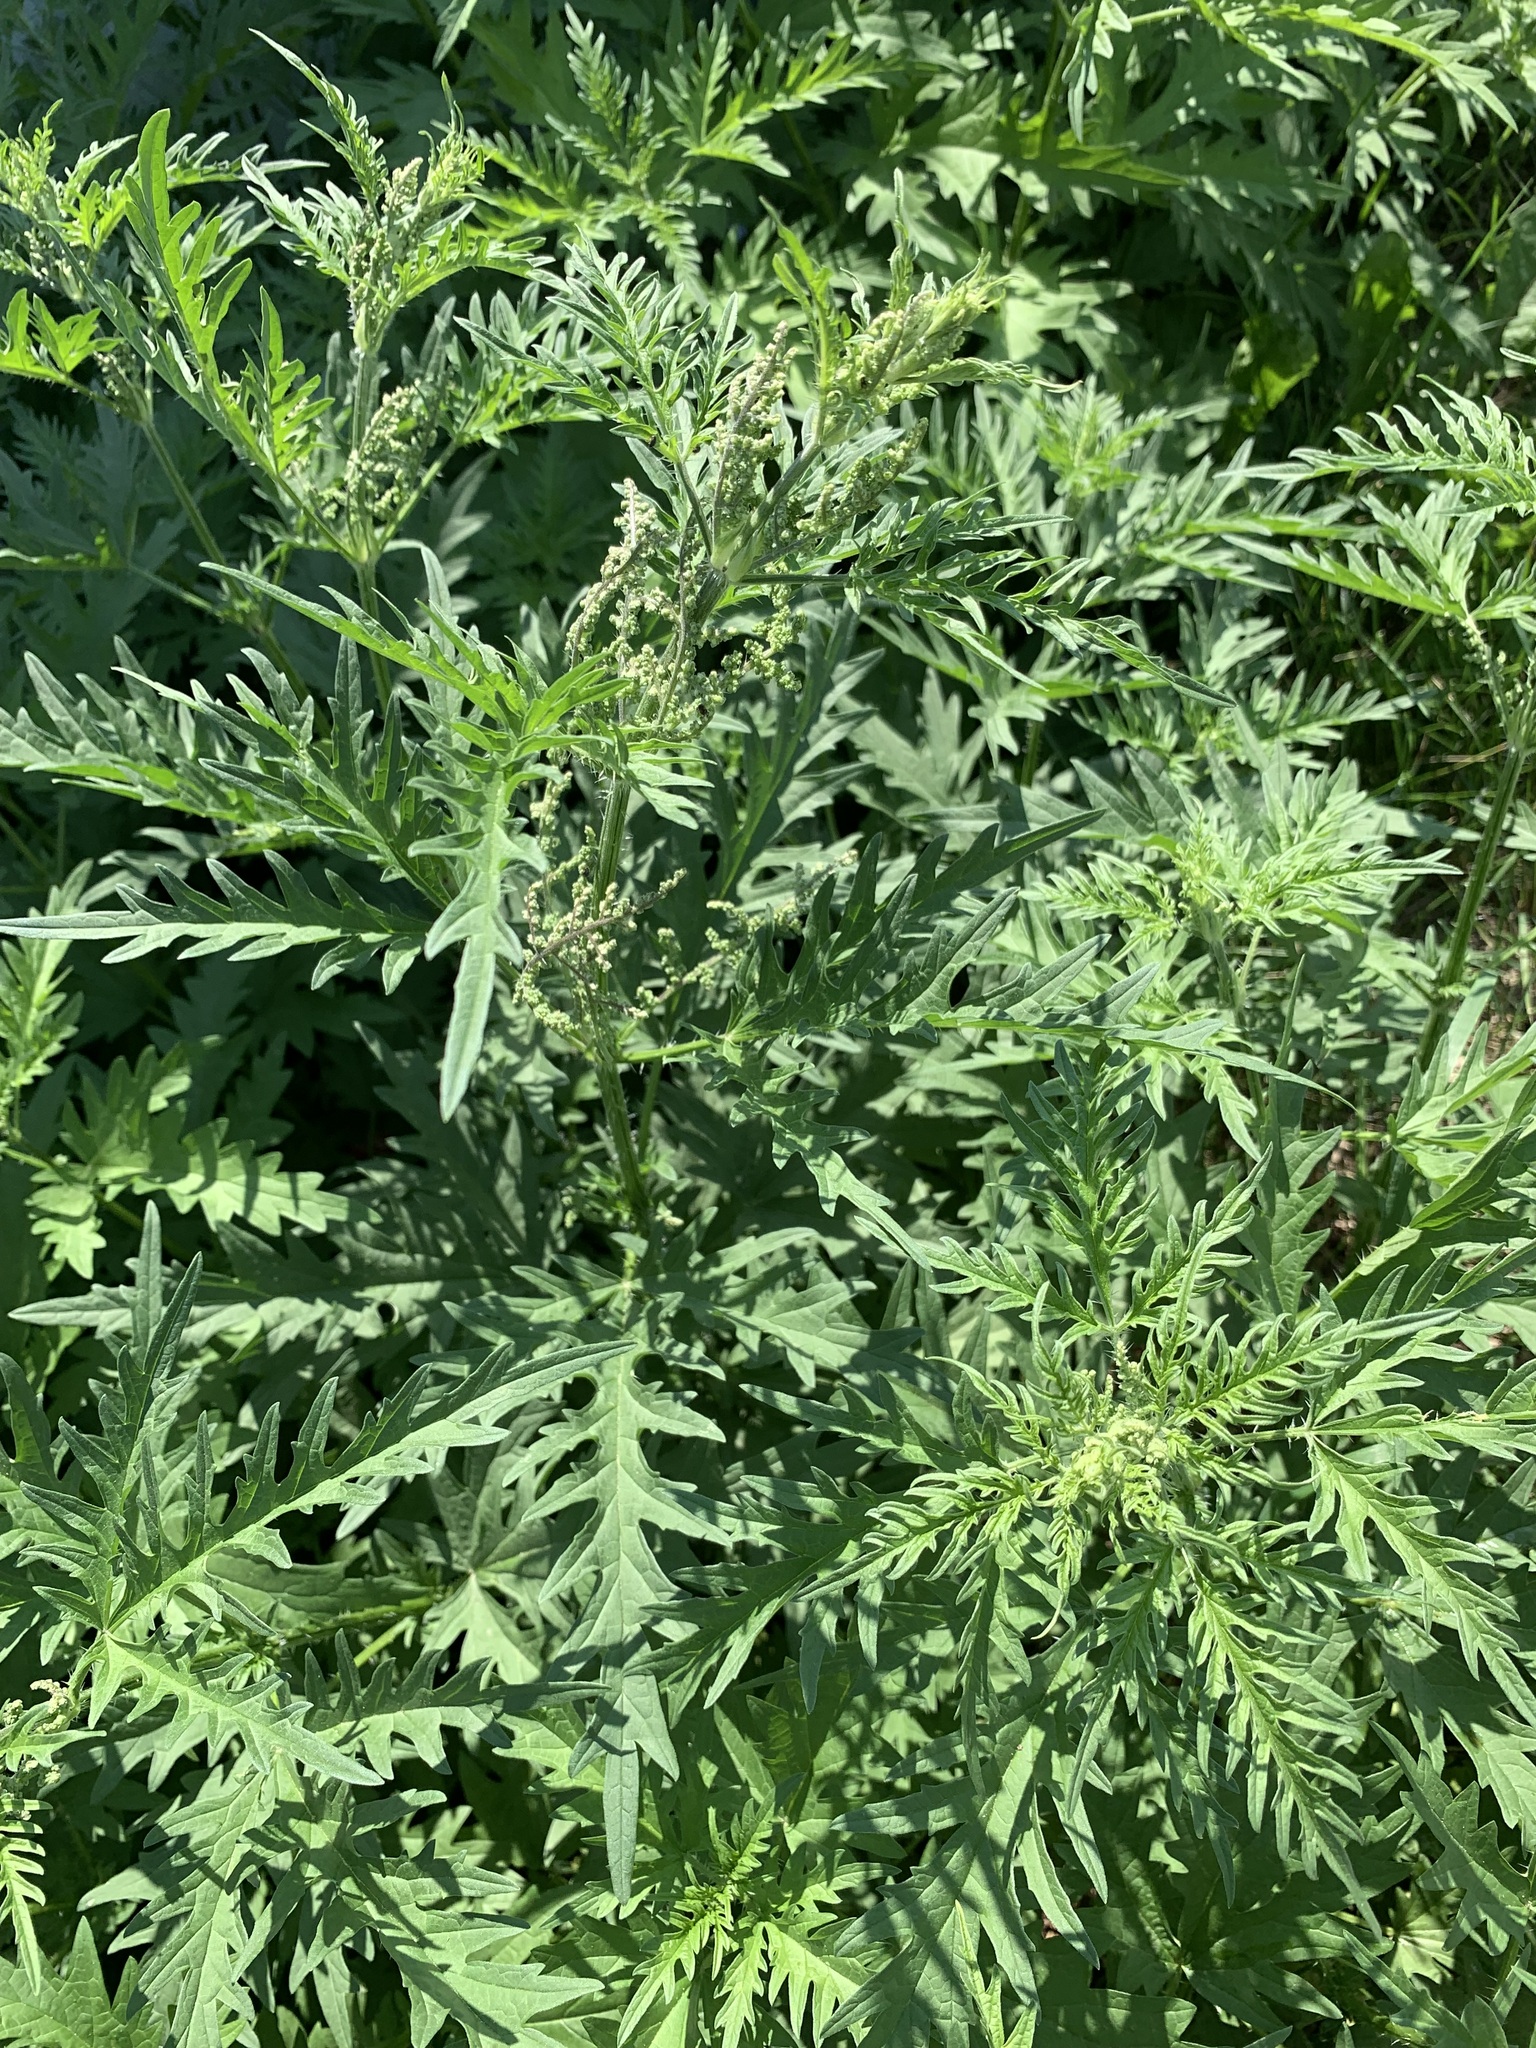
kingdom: Plantae
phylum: Tracheophyta
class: Magnoliopsida
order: Rosales
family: Urticaceae
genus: Urtica
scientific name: Urtica cannabina
